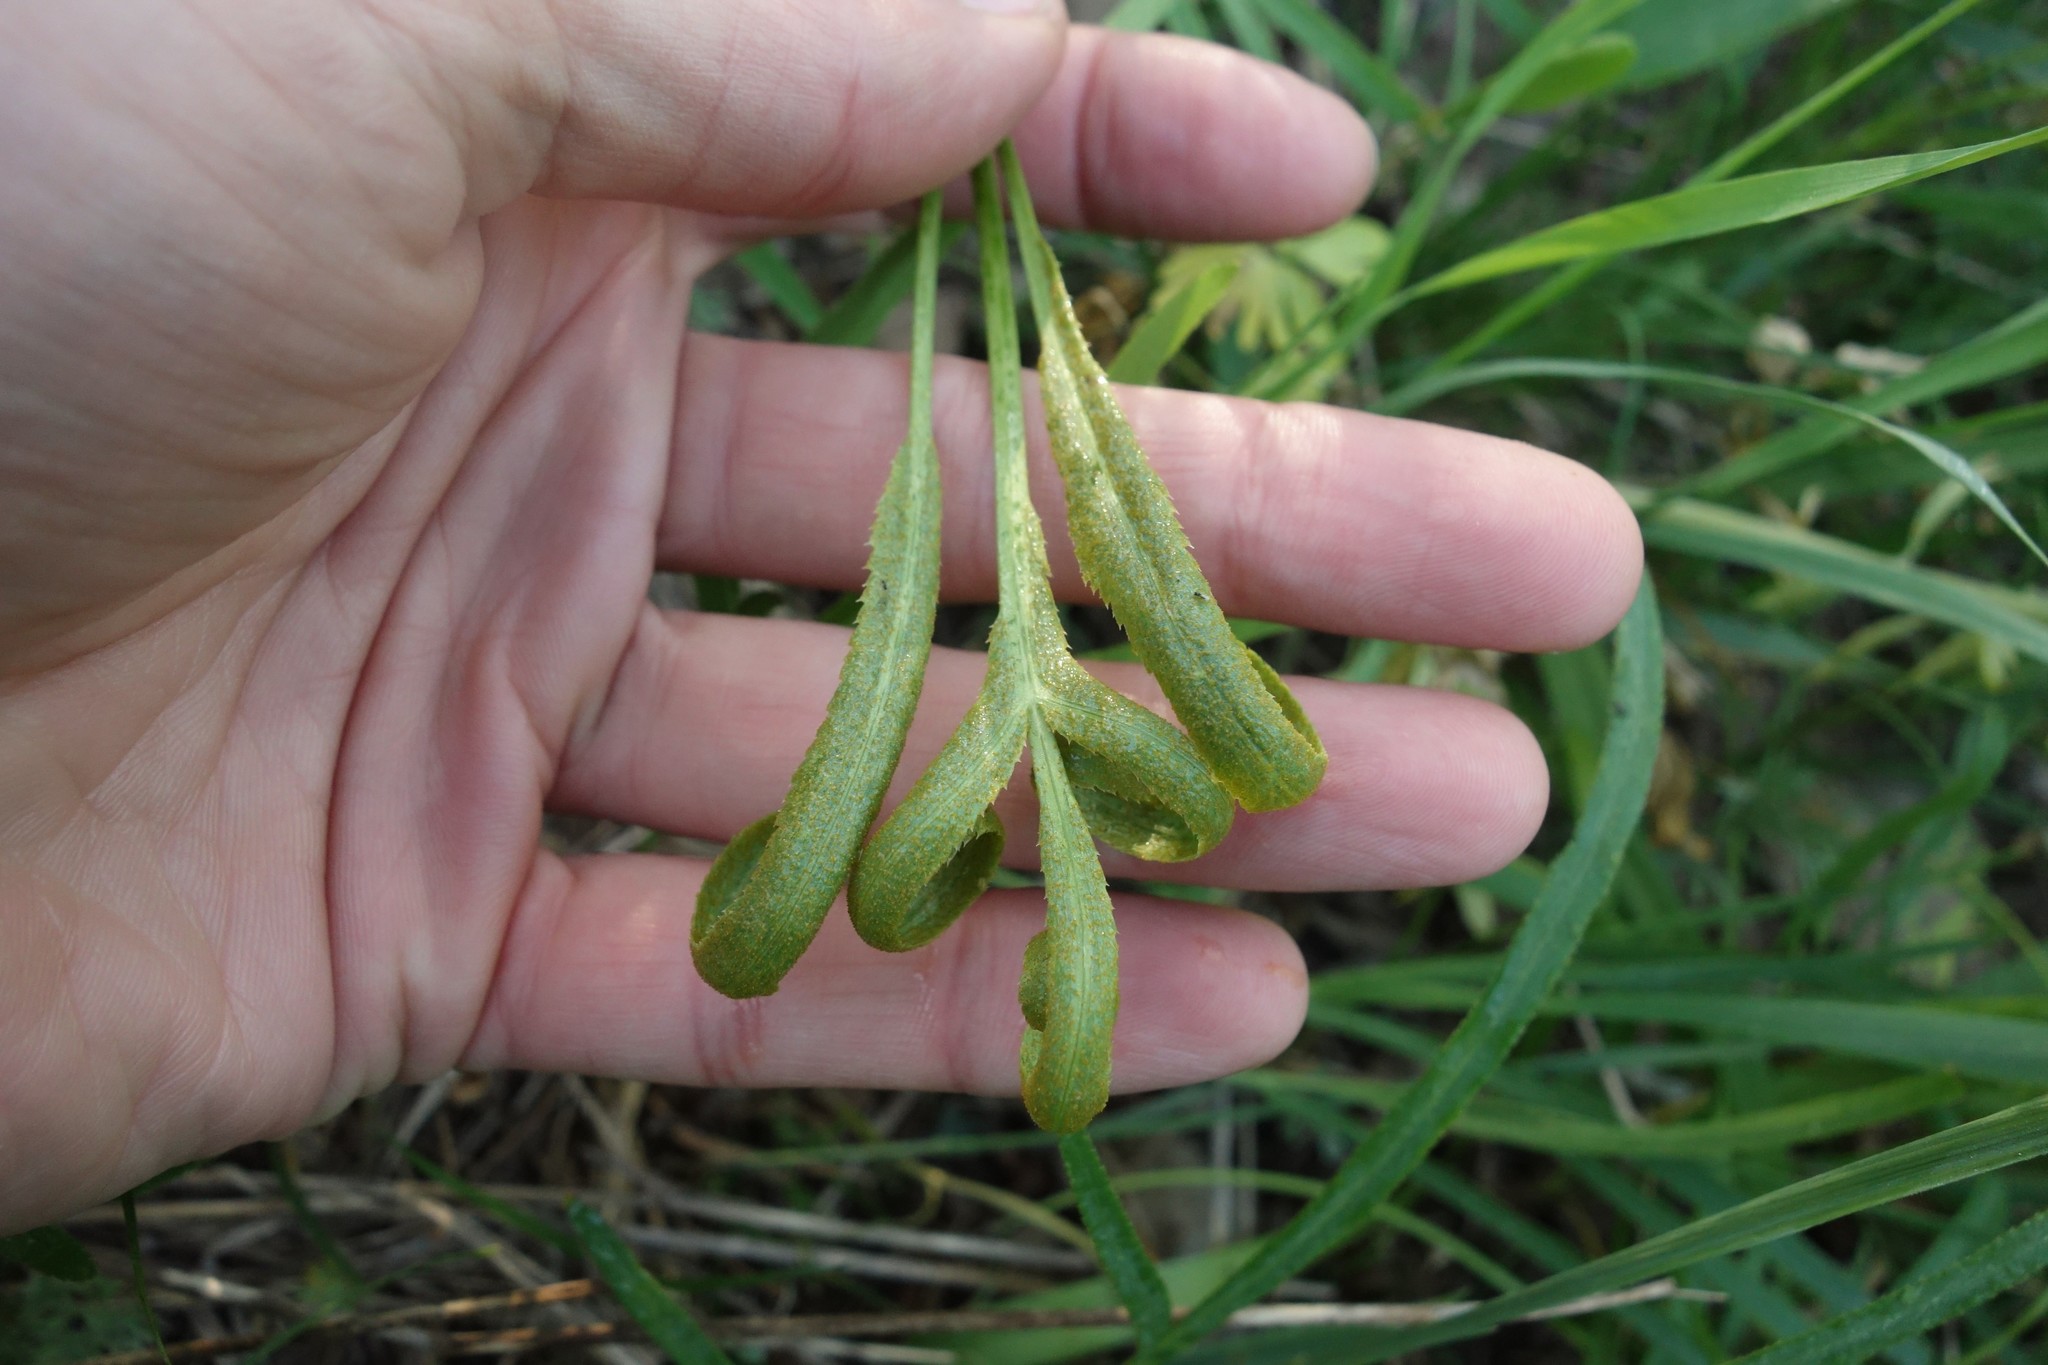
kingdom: Plantae
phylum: Tracheophyta
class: Magnoliopsida
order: Apiales
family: Apiaceae
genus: Falcaria
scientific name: Falcaria vulgaris
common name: Longleaf
